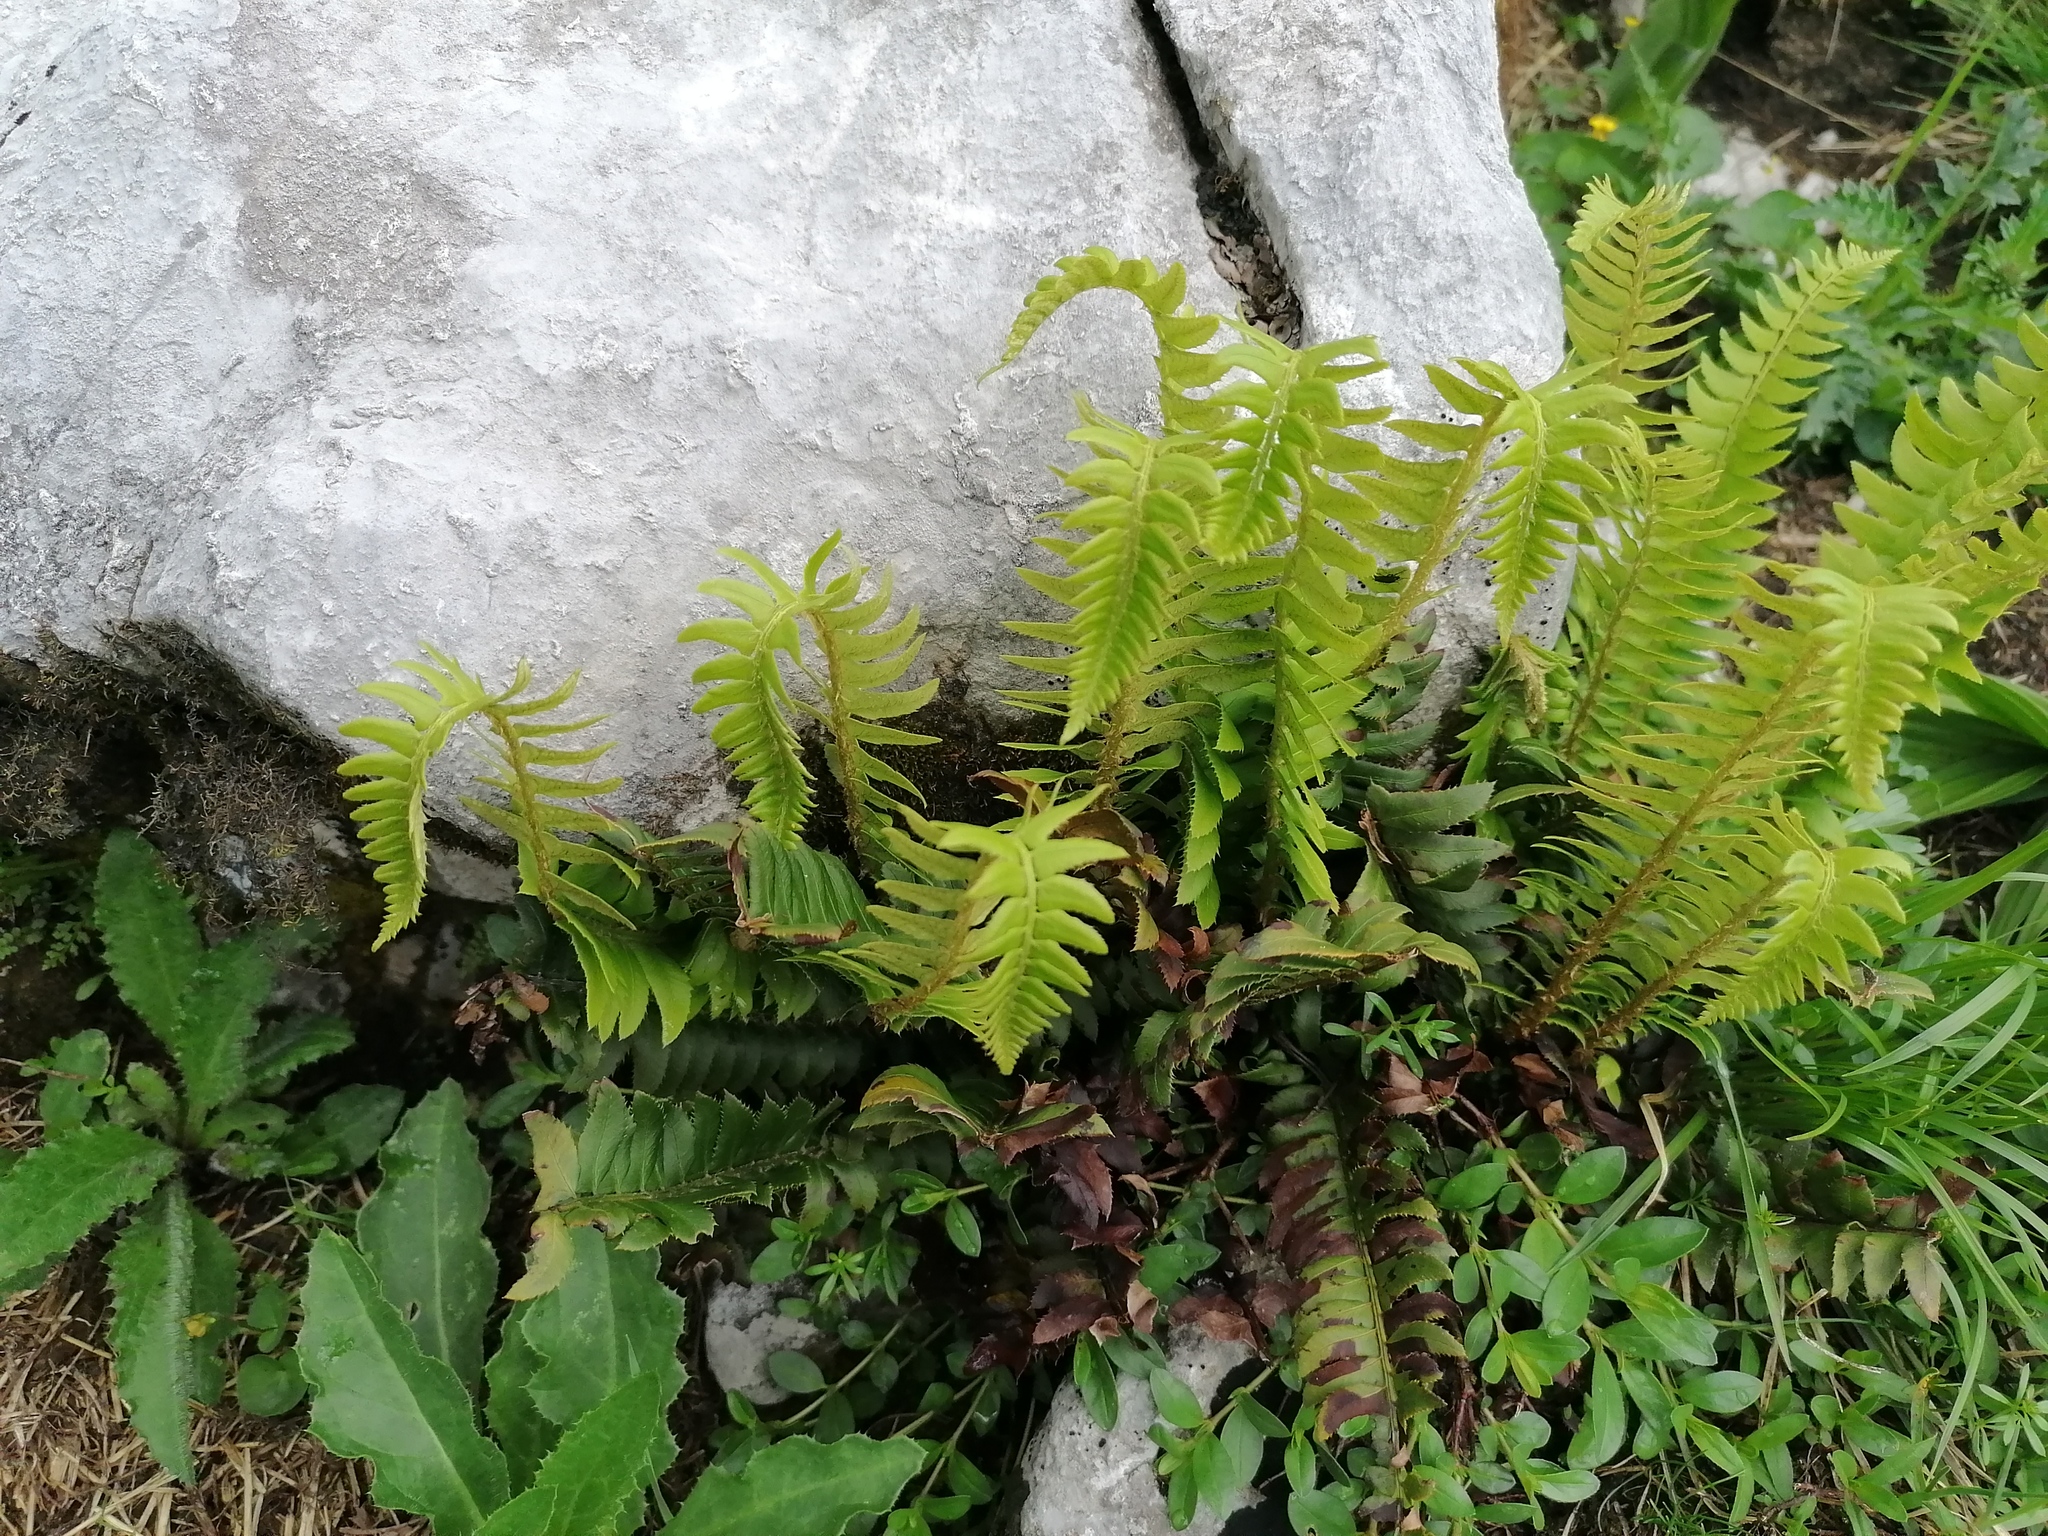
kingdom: Plantae
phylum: Tracheophyta
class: Polypodiopsida
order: Polypodiales
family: Dryopteridaceae
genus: Polystichum
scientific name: Polystichum lonchitis
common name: Holly fern
